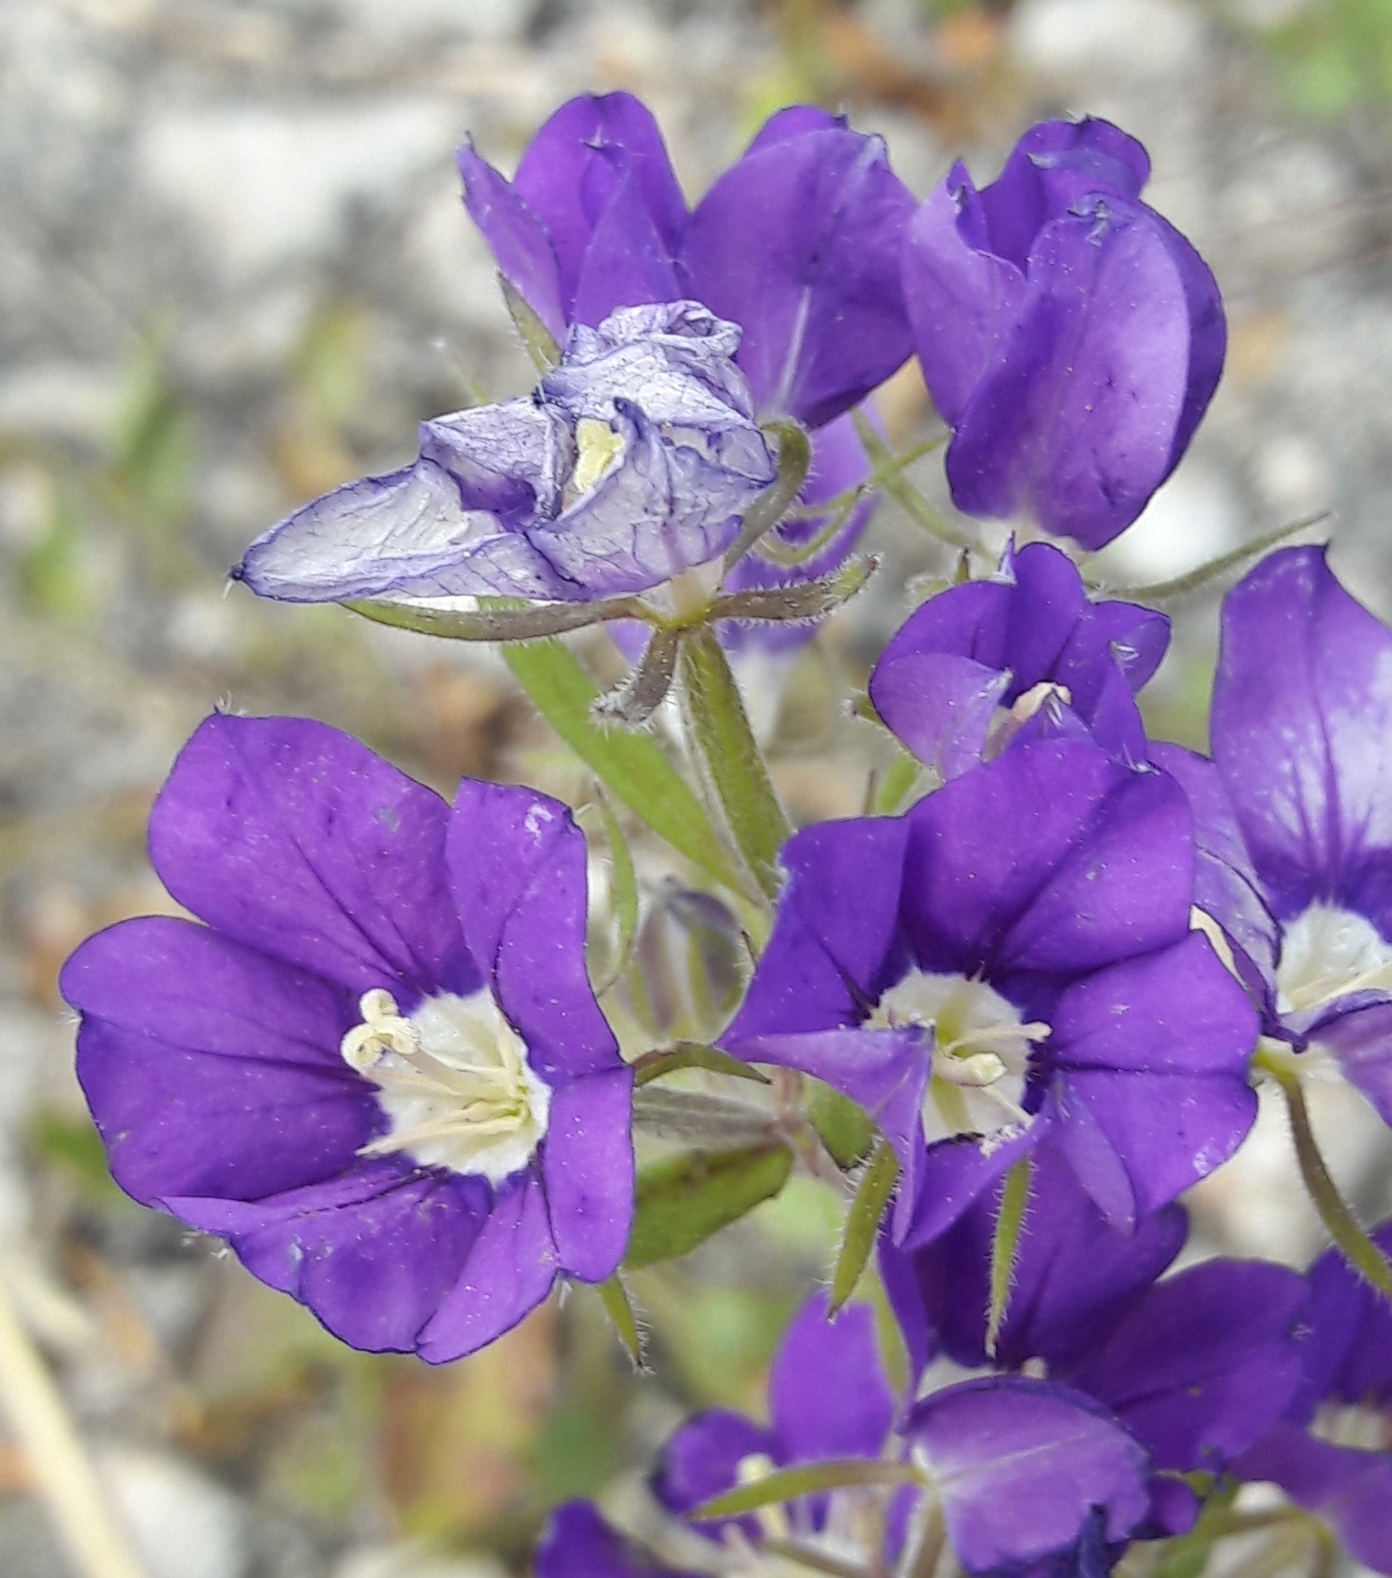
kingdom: Plantae
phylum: Tracheophyta
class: Magnoliopsida
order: Asterales
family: Campanulaceae
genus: Legousia
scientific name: Legousia speculum-veneris
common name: Large venus's-looking-glass
